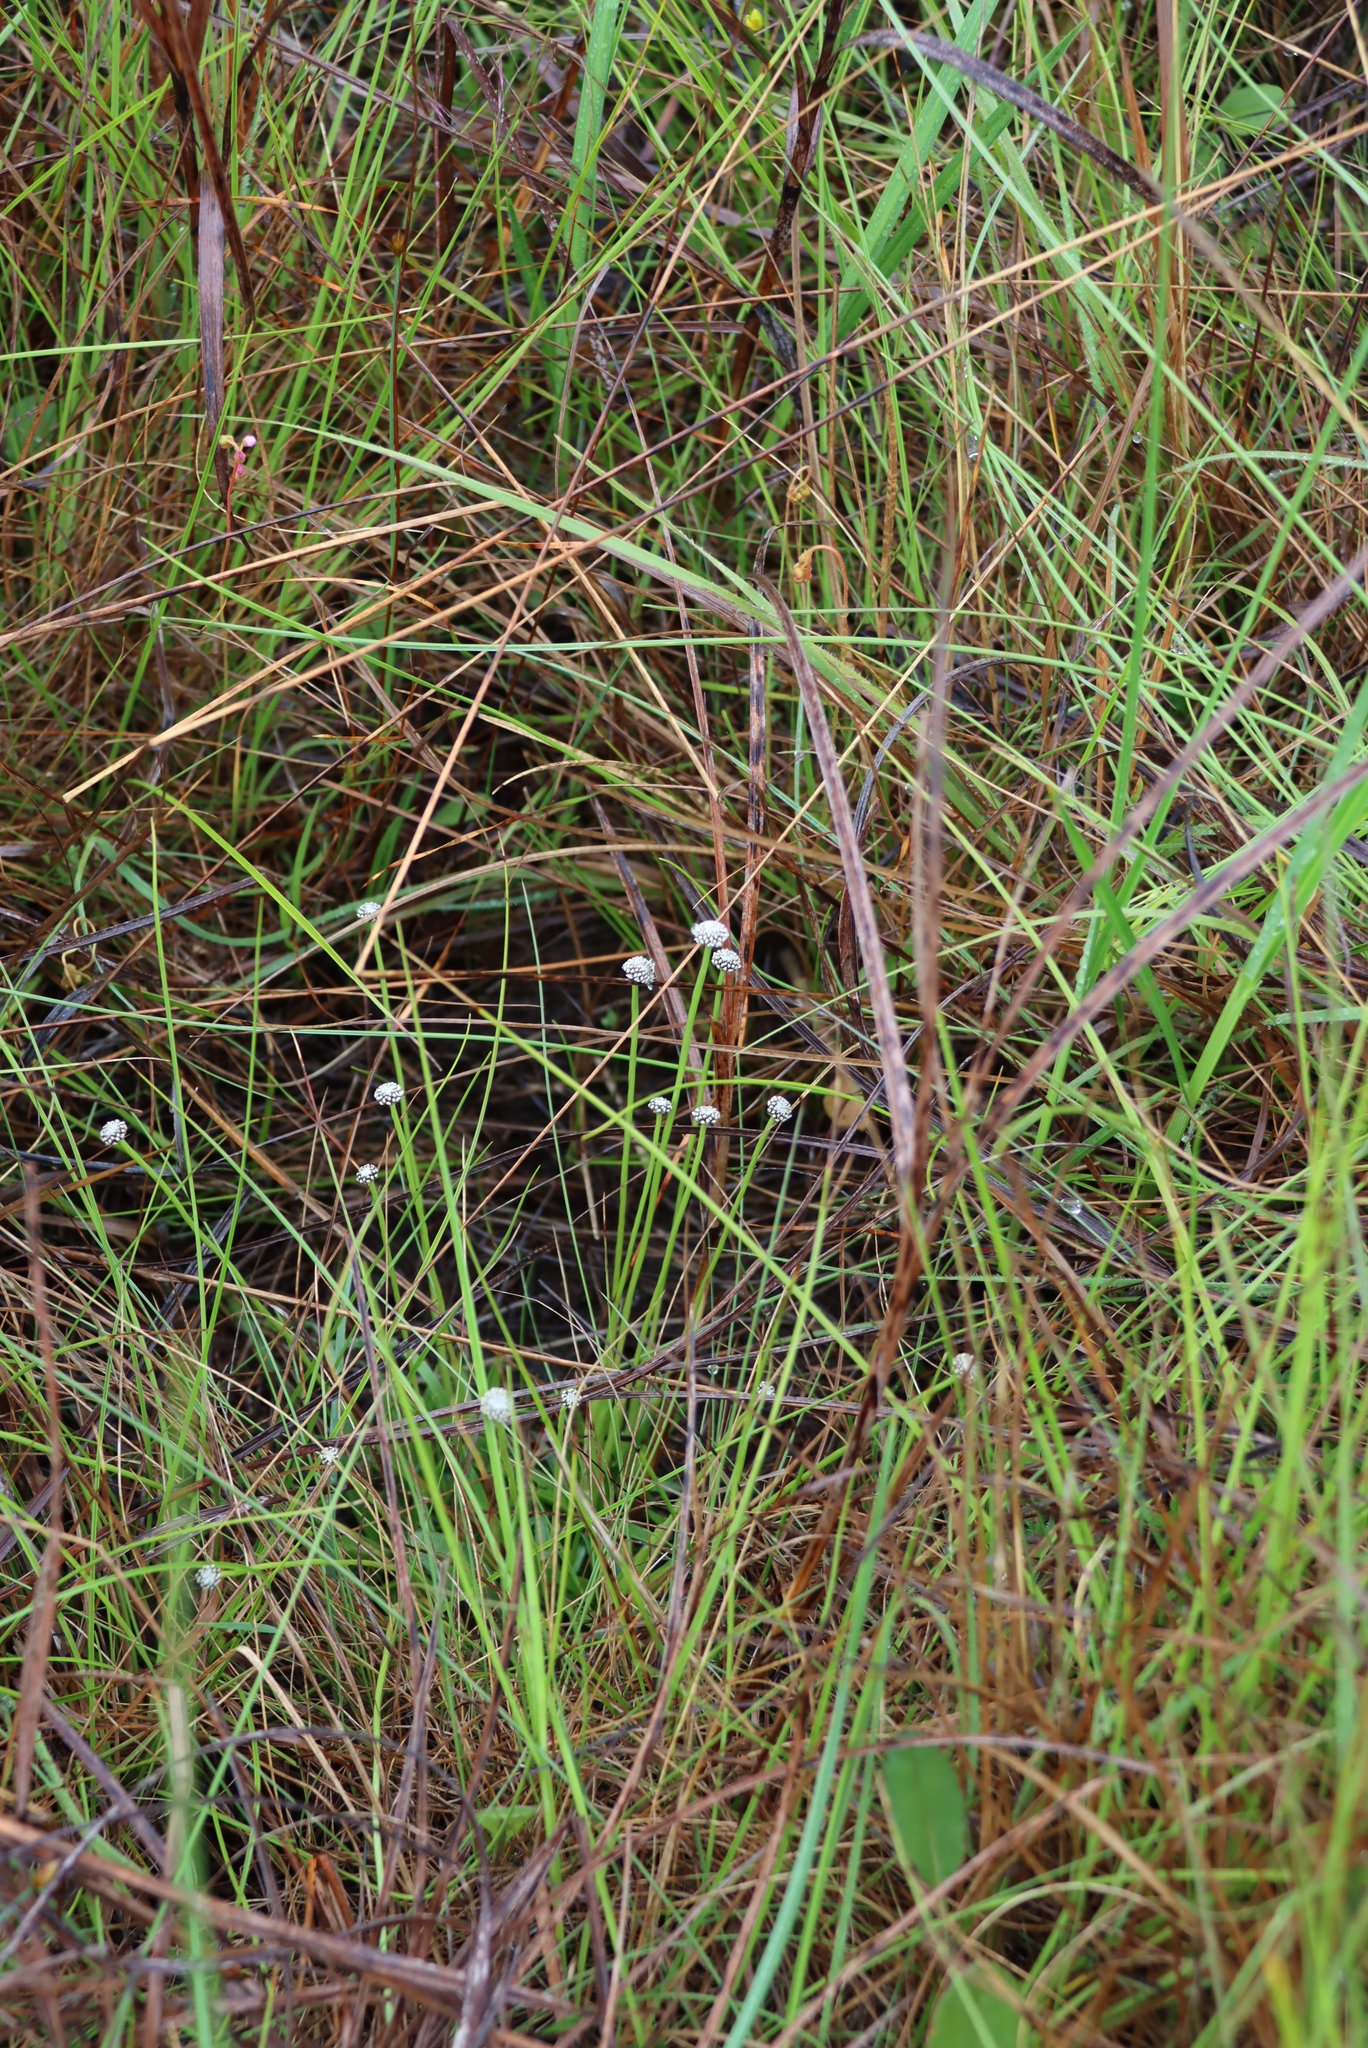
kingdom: Plantae
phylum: Tracheophyta
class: Liliopsida
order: Poales
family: Eriocaulaceae
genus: Eriocaulon
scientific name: Eriocaulon sonderianum
